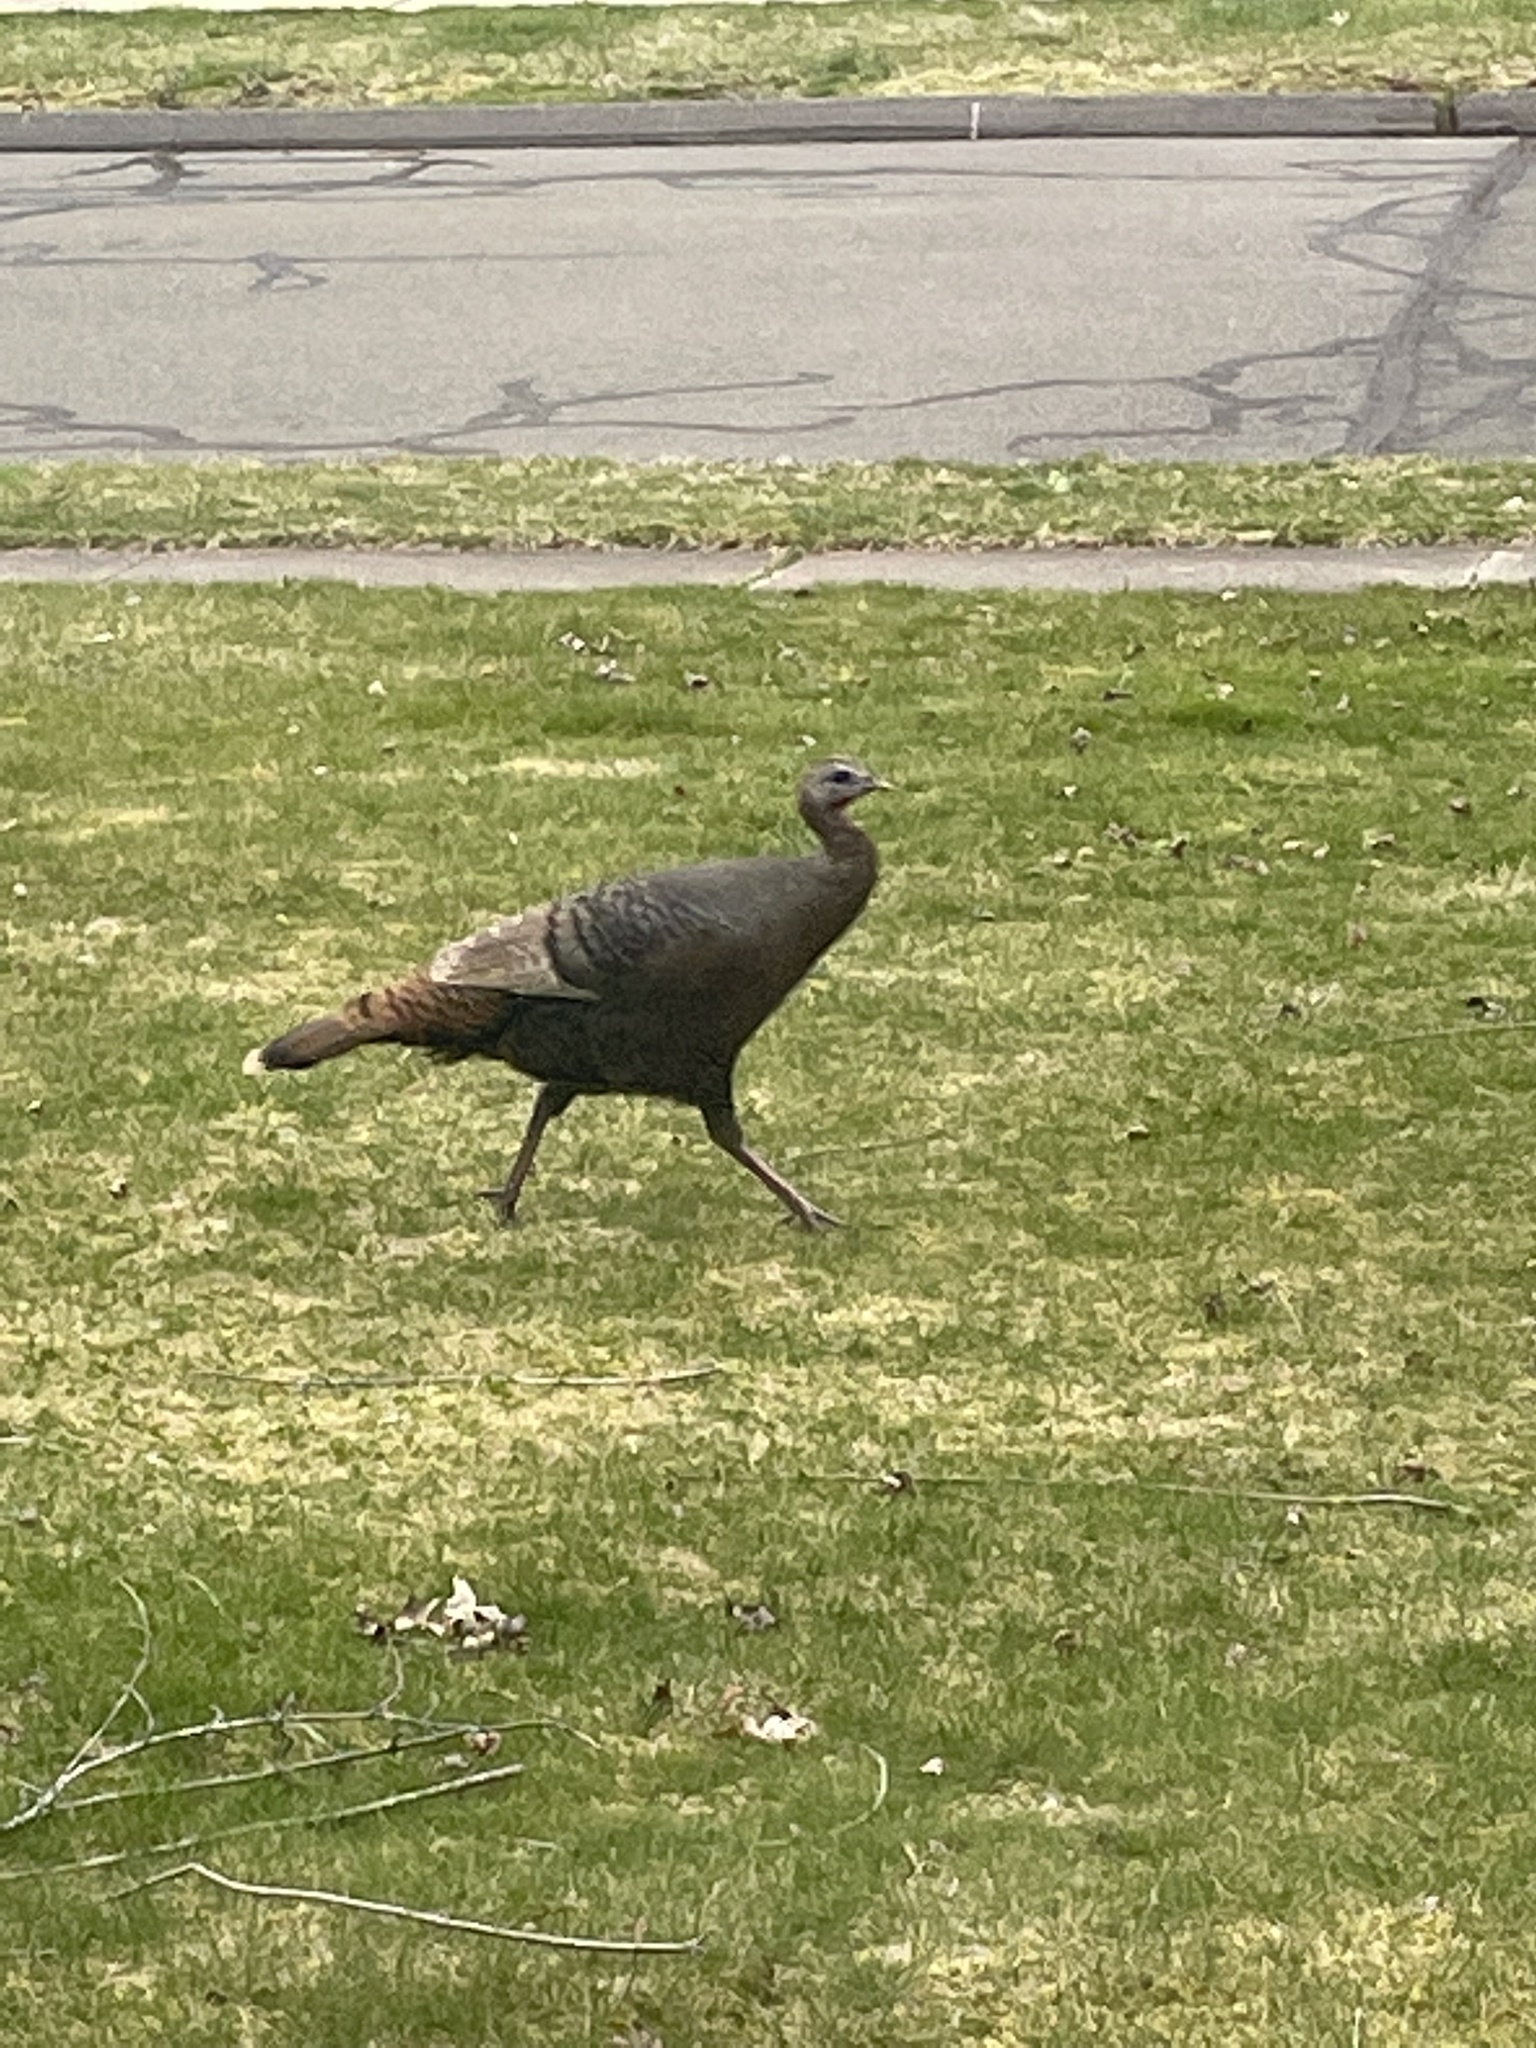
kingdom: Animalia
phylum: Chordata
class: Aves
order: Galliformes
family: Phasianidae
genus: Meleagris
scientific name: Meleagris gallopavo
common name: Wild turkey
